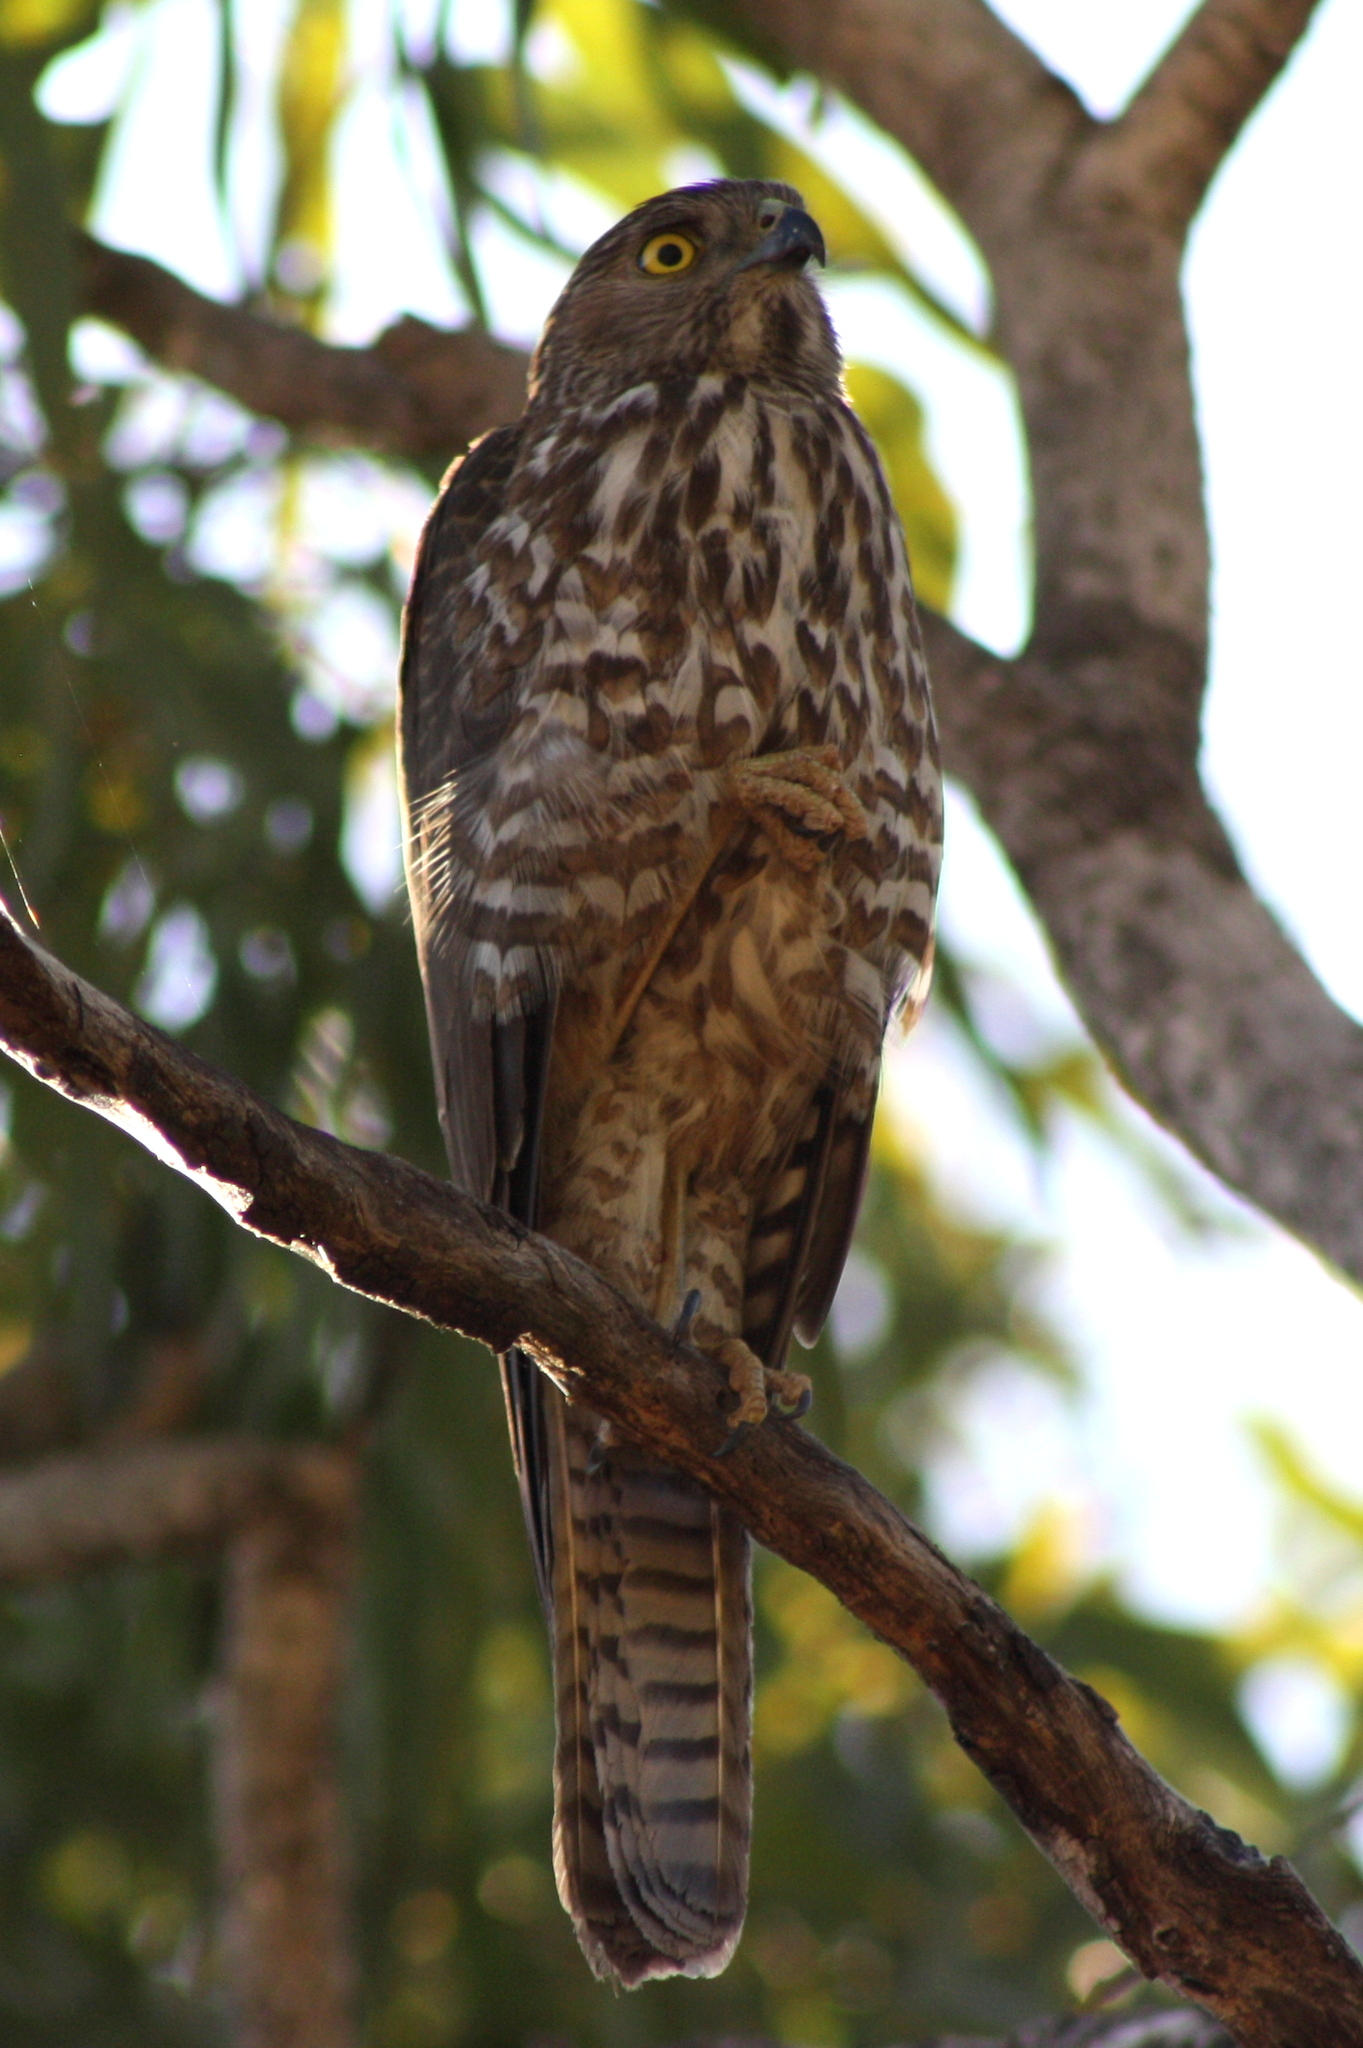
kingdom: Animalia
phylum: Chordata
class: Aves
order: Accipitriformes
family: Accipitridae
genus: Accipiter
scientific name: Accipiter fasciatus
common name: Brown goshawk
